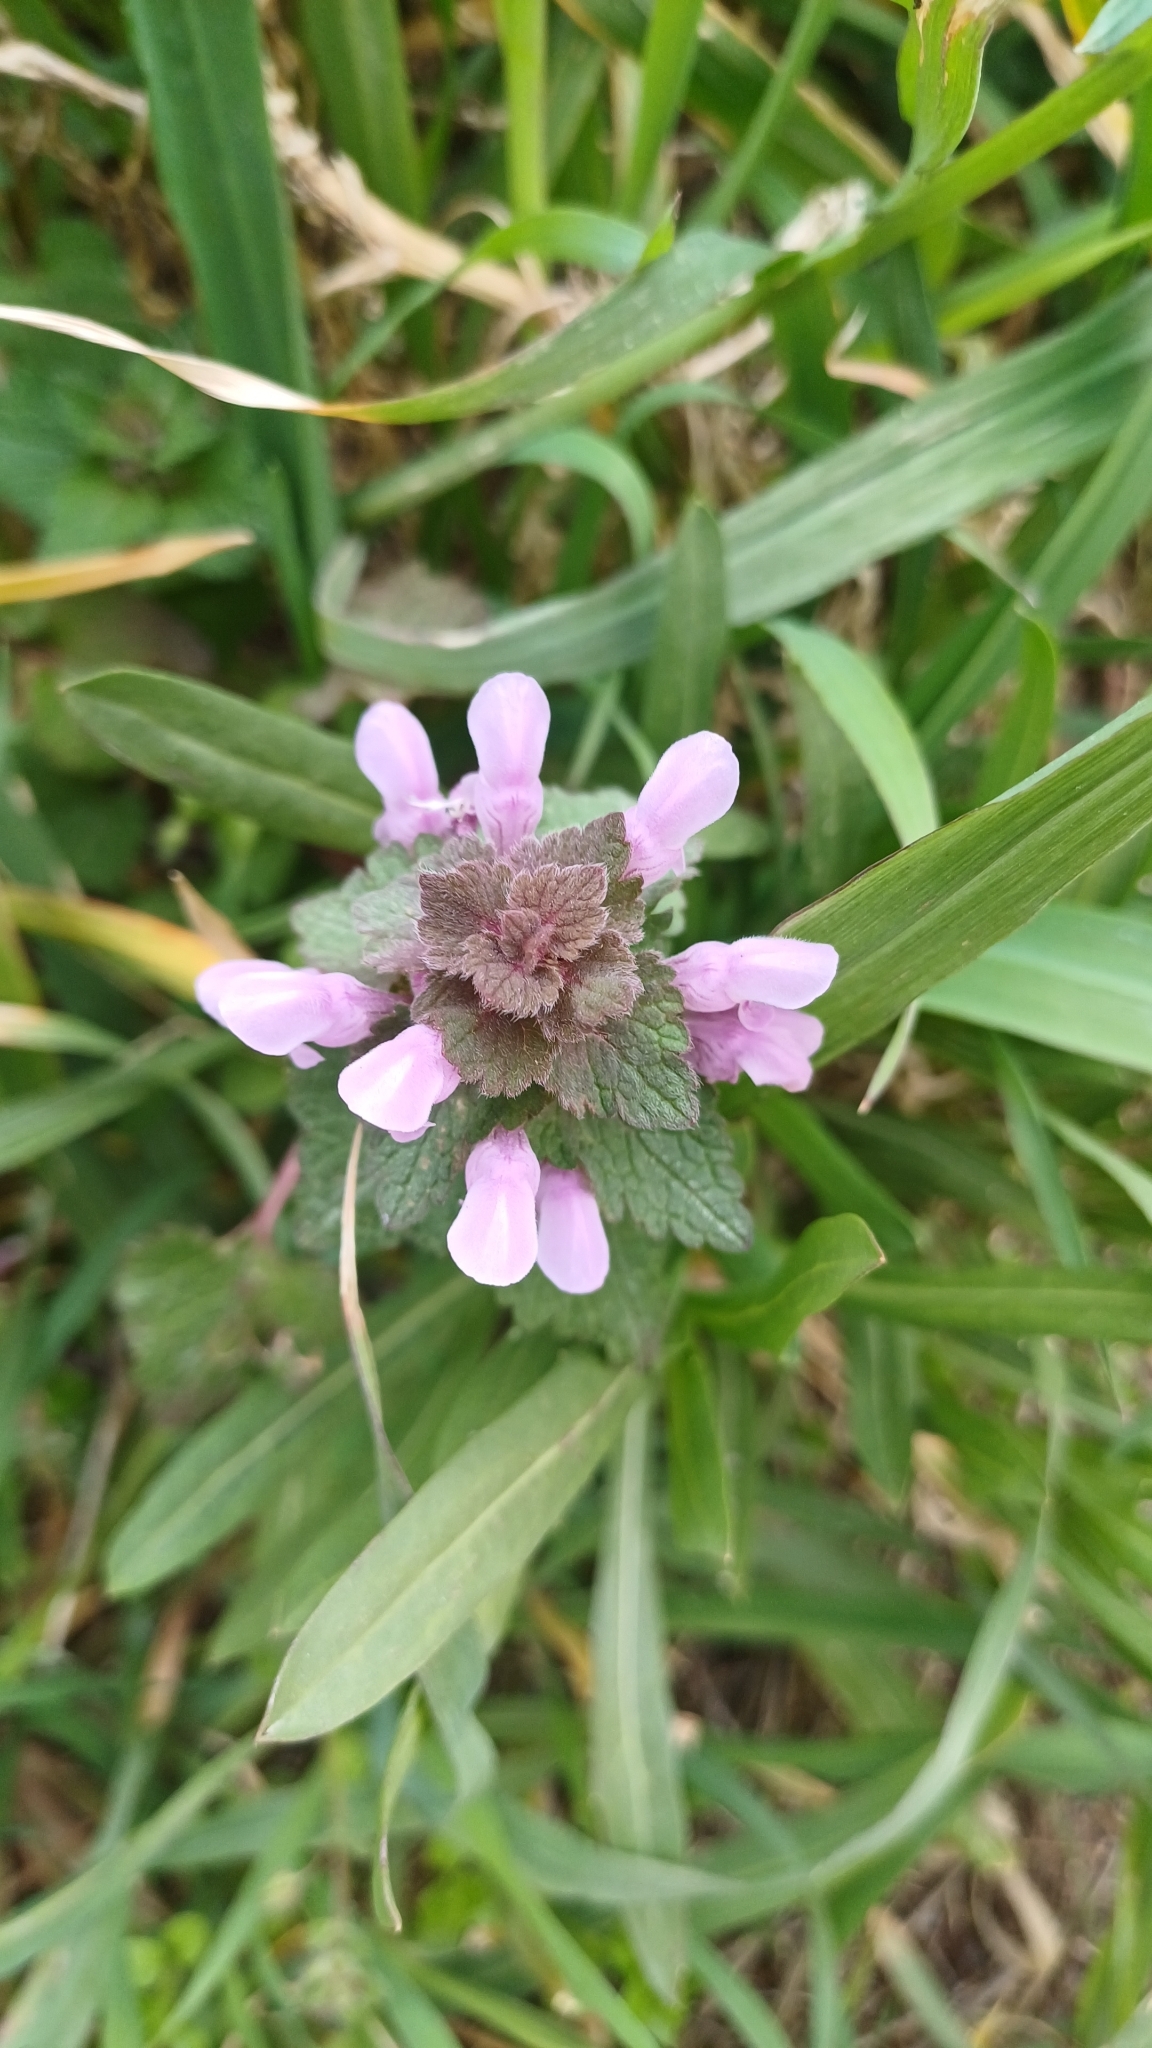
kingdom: Plantae
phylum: Tracheophyta
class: Magnoliopsida
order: Lamiales
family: Lamiaceae
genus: Lamium
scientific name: Lamium purpureum
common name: Red dead-nettle
